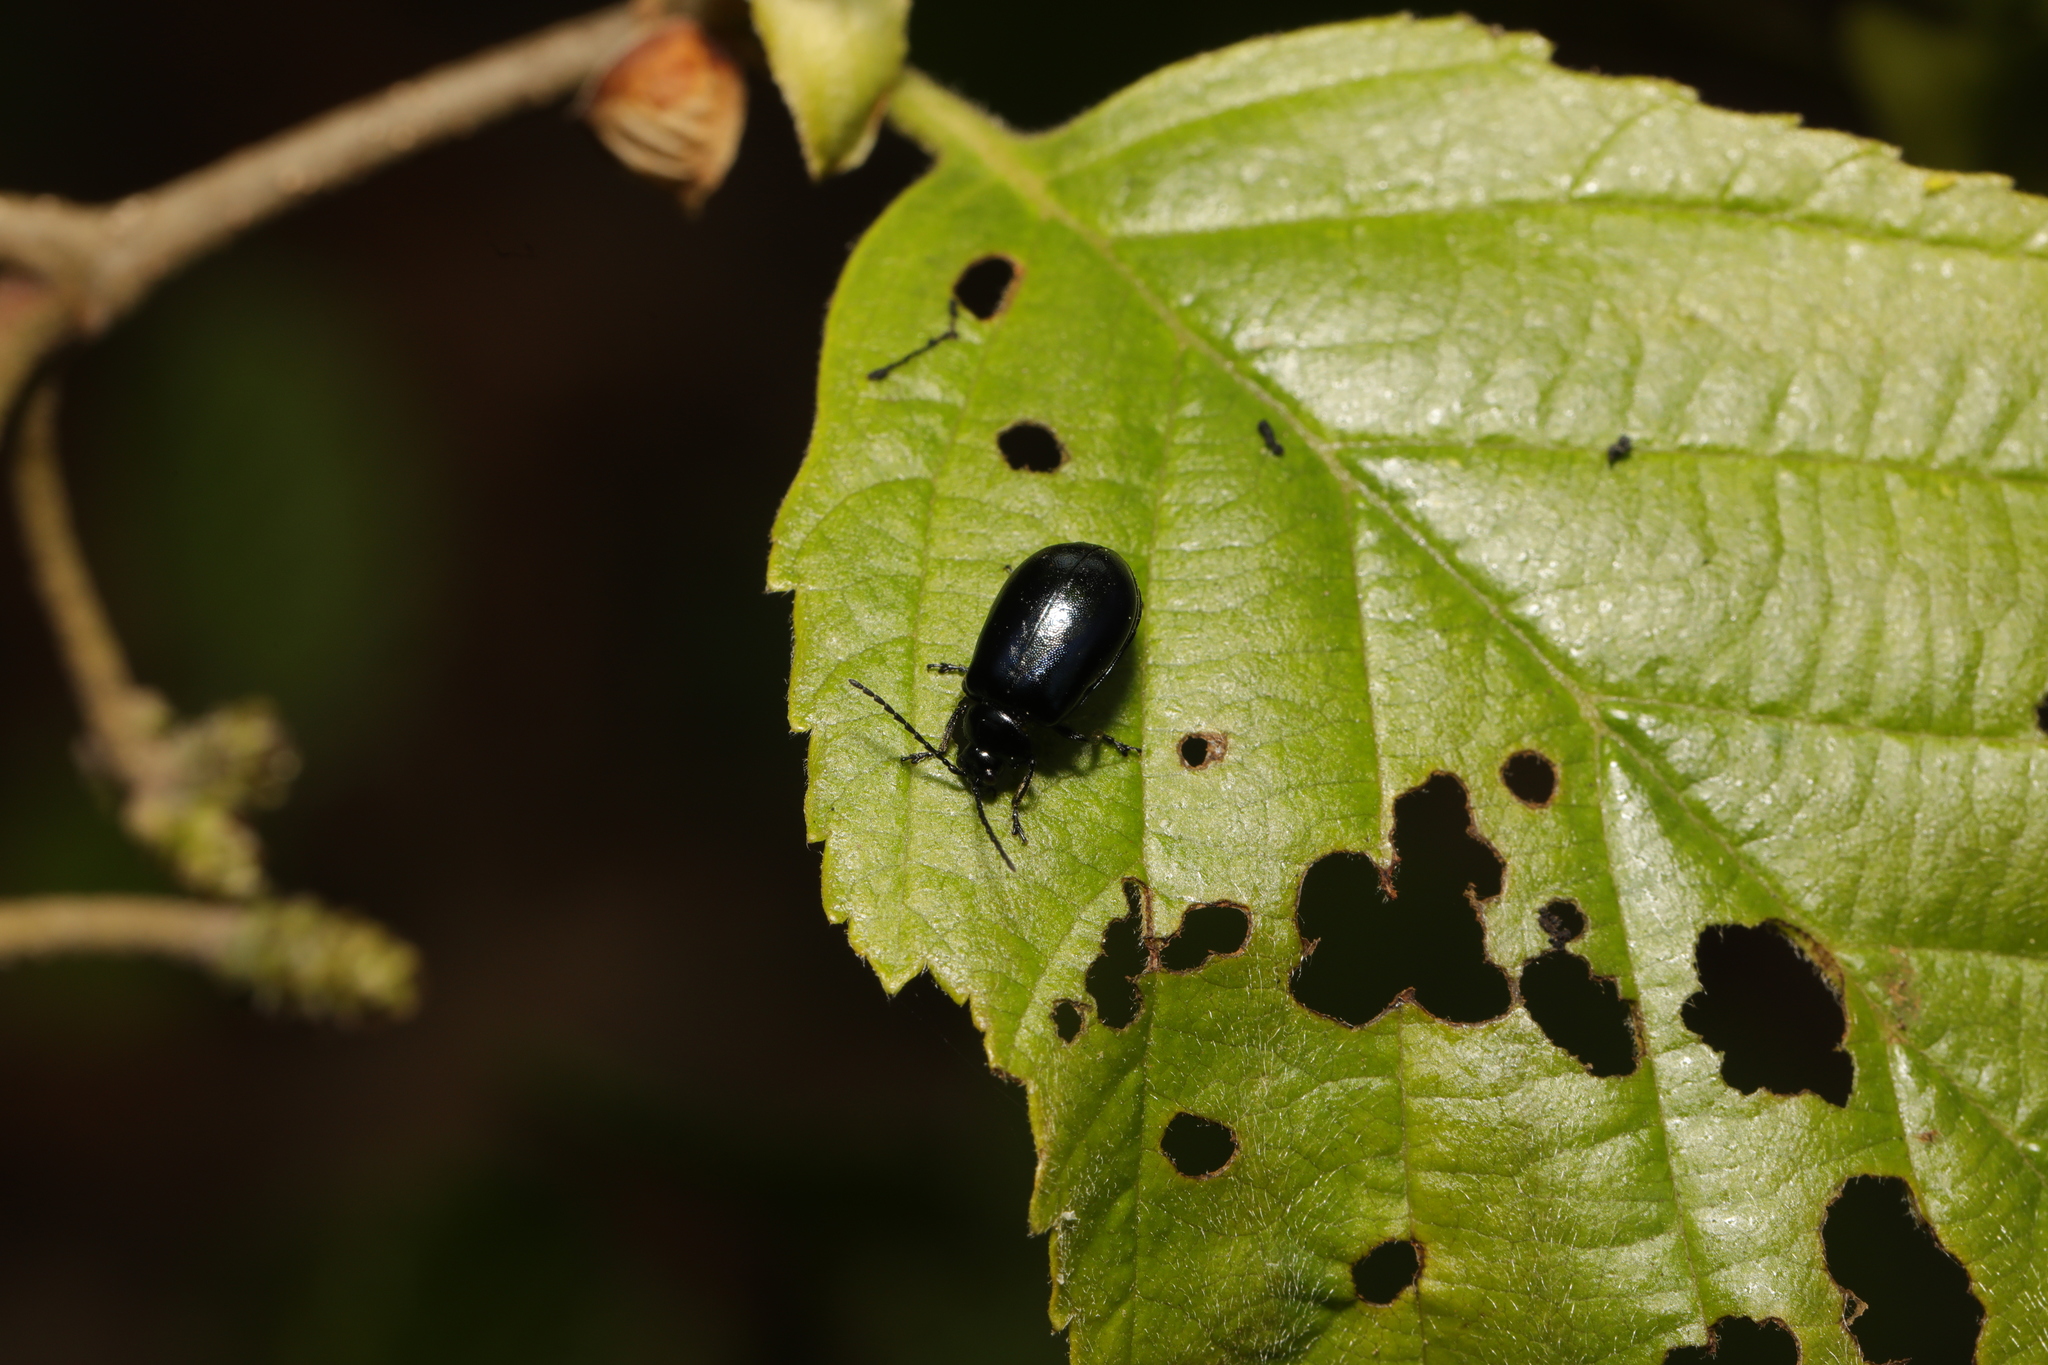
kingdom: Animalia
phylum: Arthropoda
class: Insecta
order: Coleoptera
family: Chrysomelidae
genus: Agelastica
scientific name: Agelastica alni
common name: Alder leaf beetle
